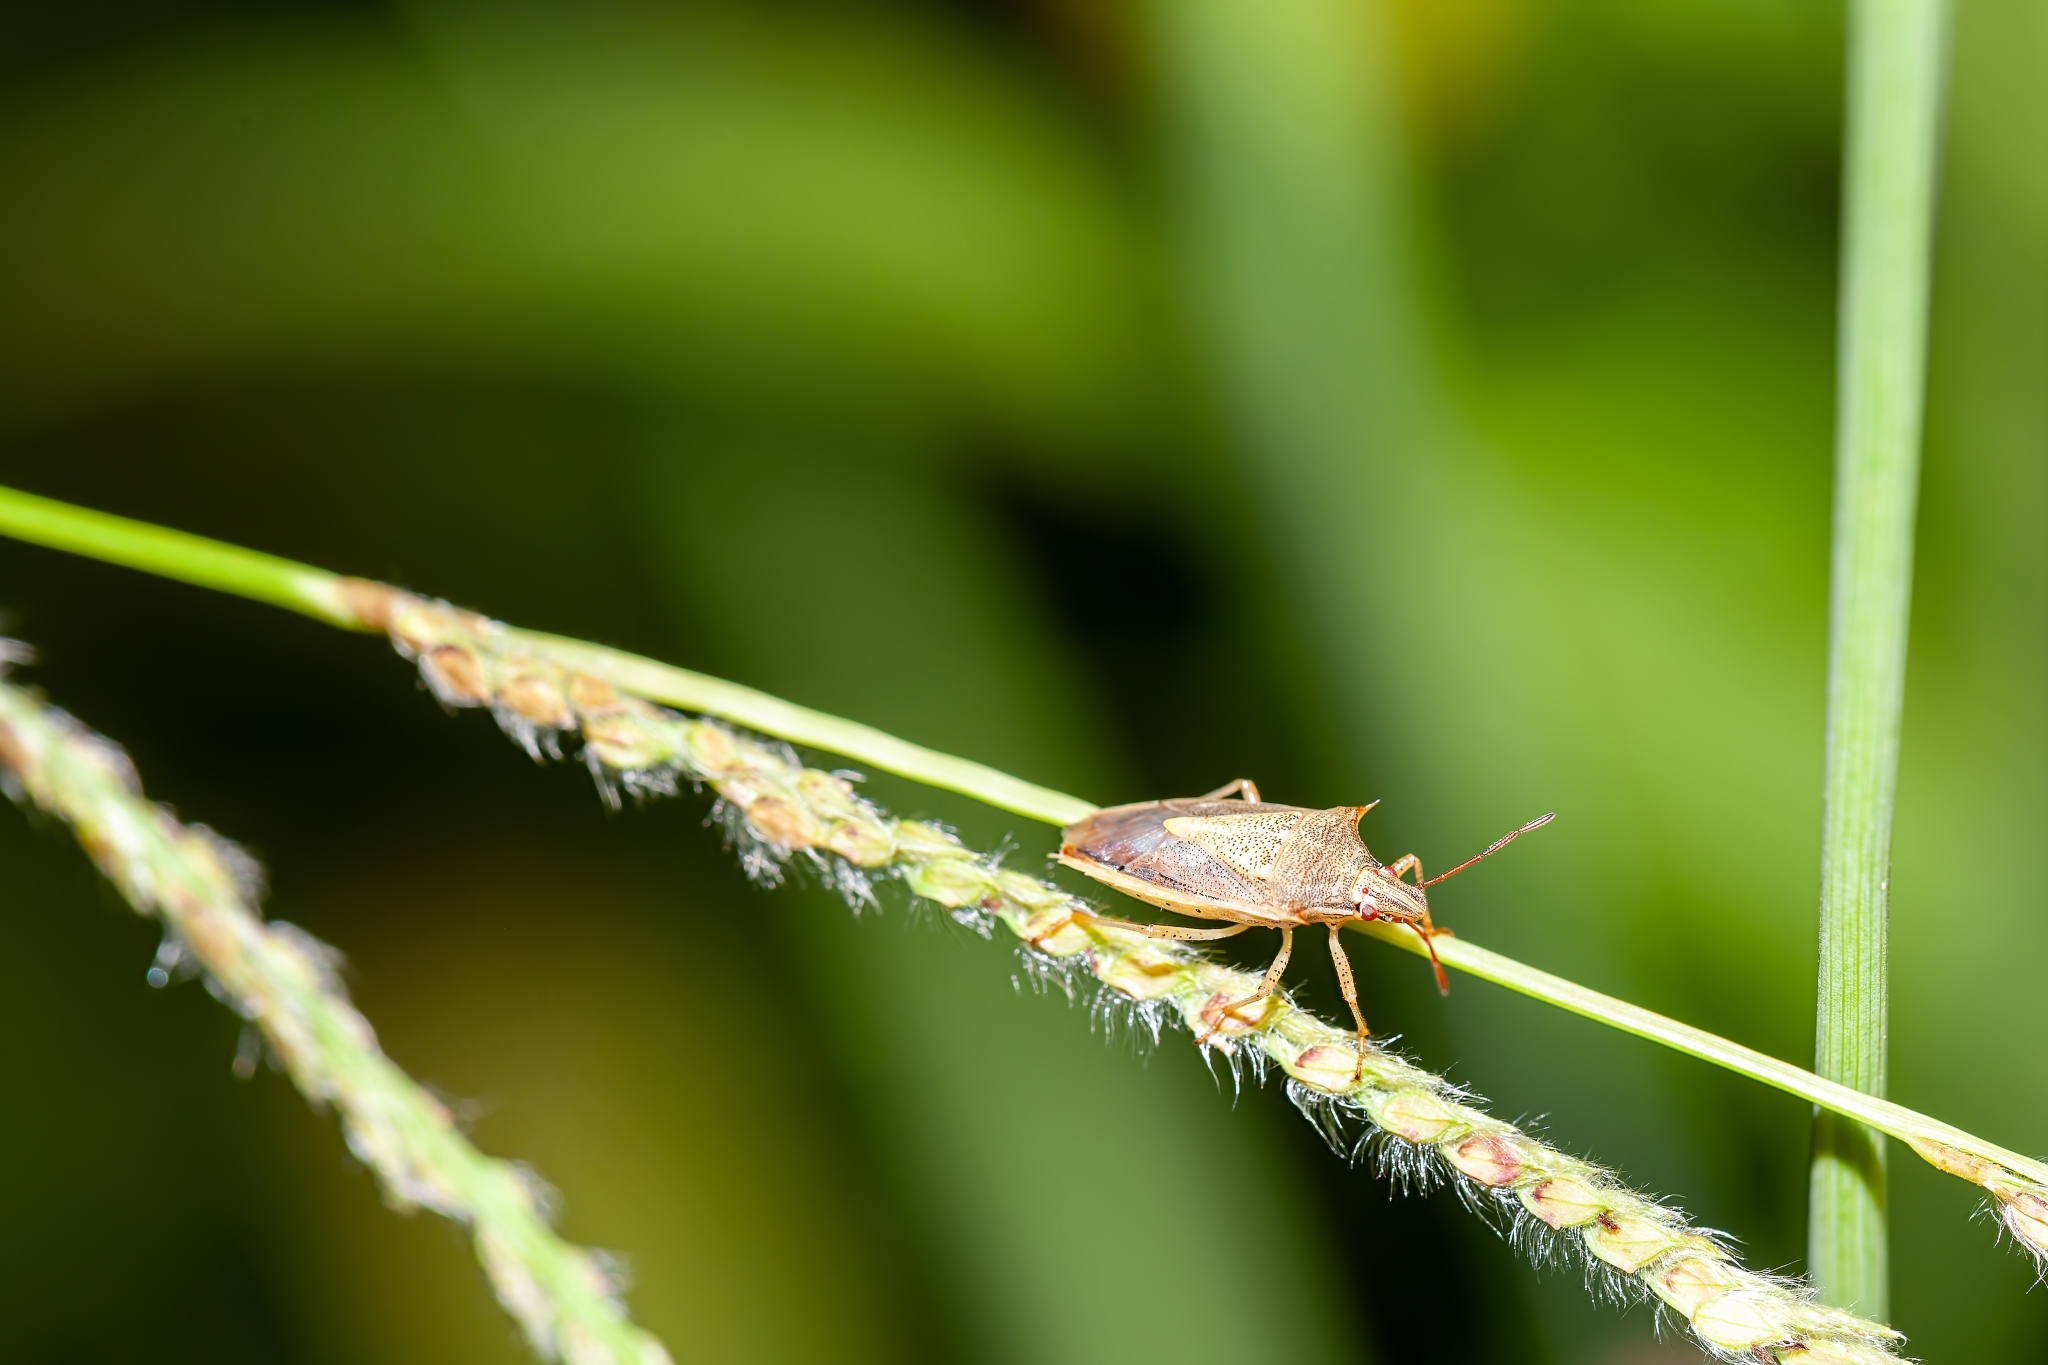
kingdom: Animalia
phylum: Arthropoda
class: Insecta
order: Hemiptera
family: Pentatomidae
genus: Oebalus
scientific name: Oebalus pugnax
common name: Rice stink bug
